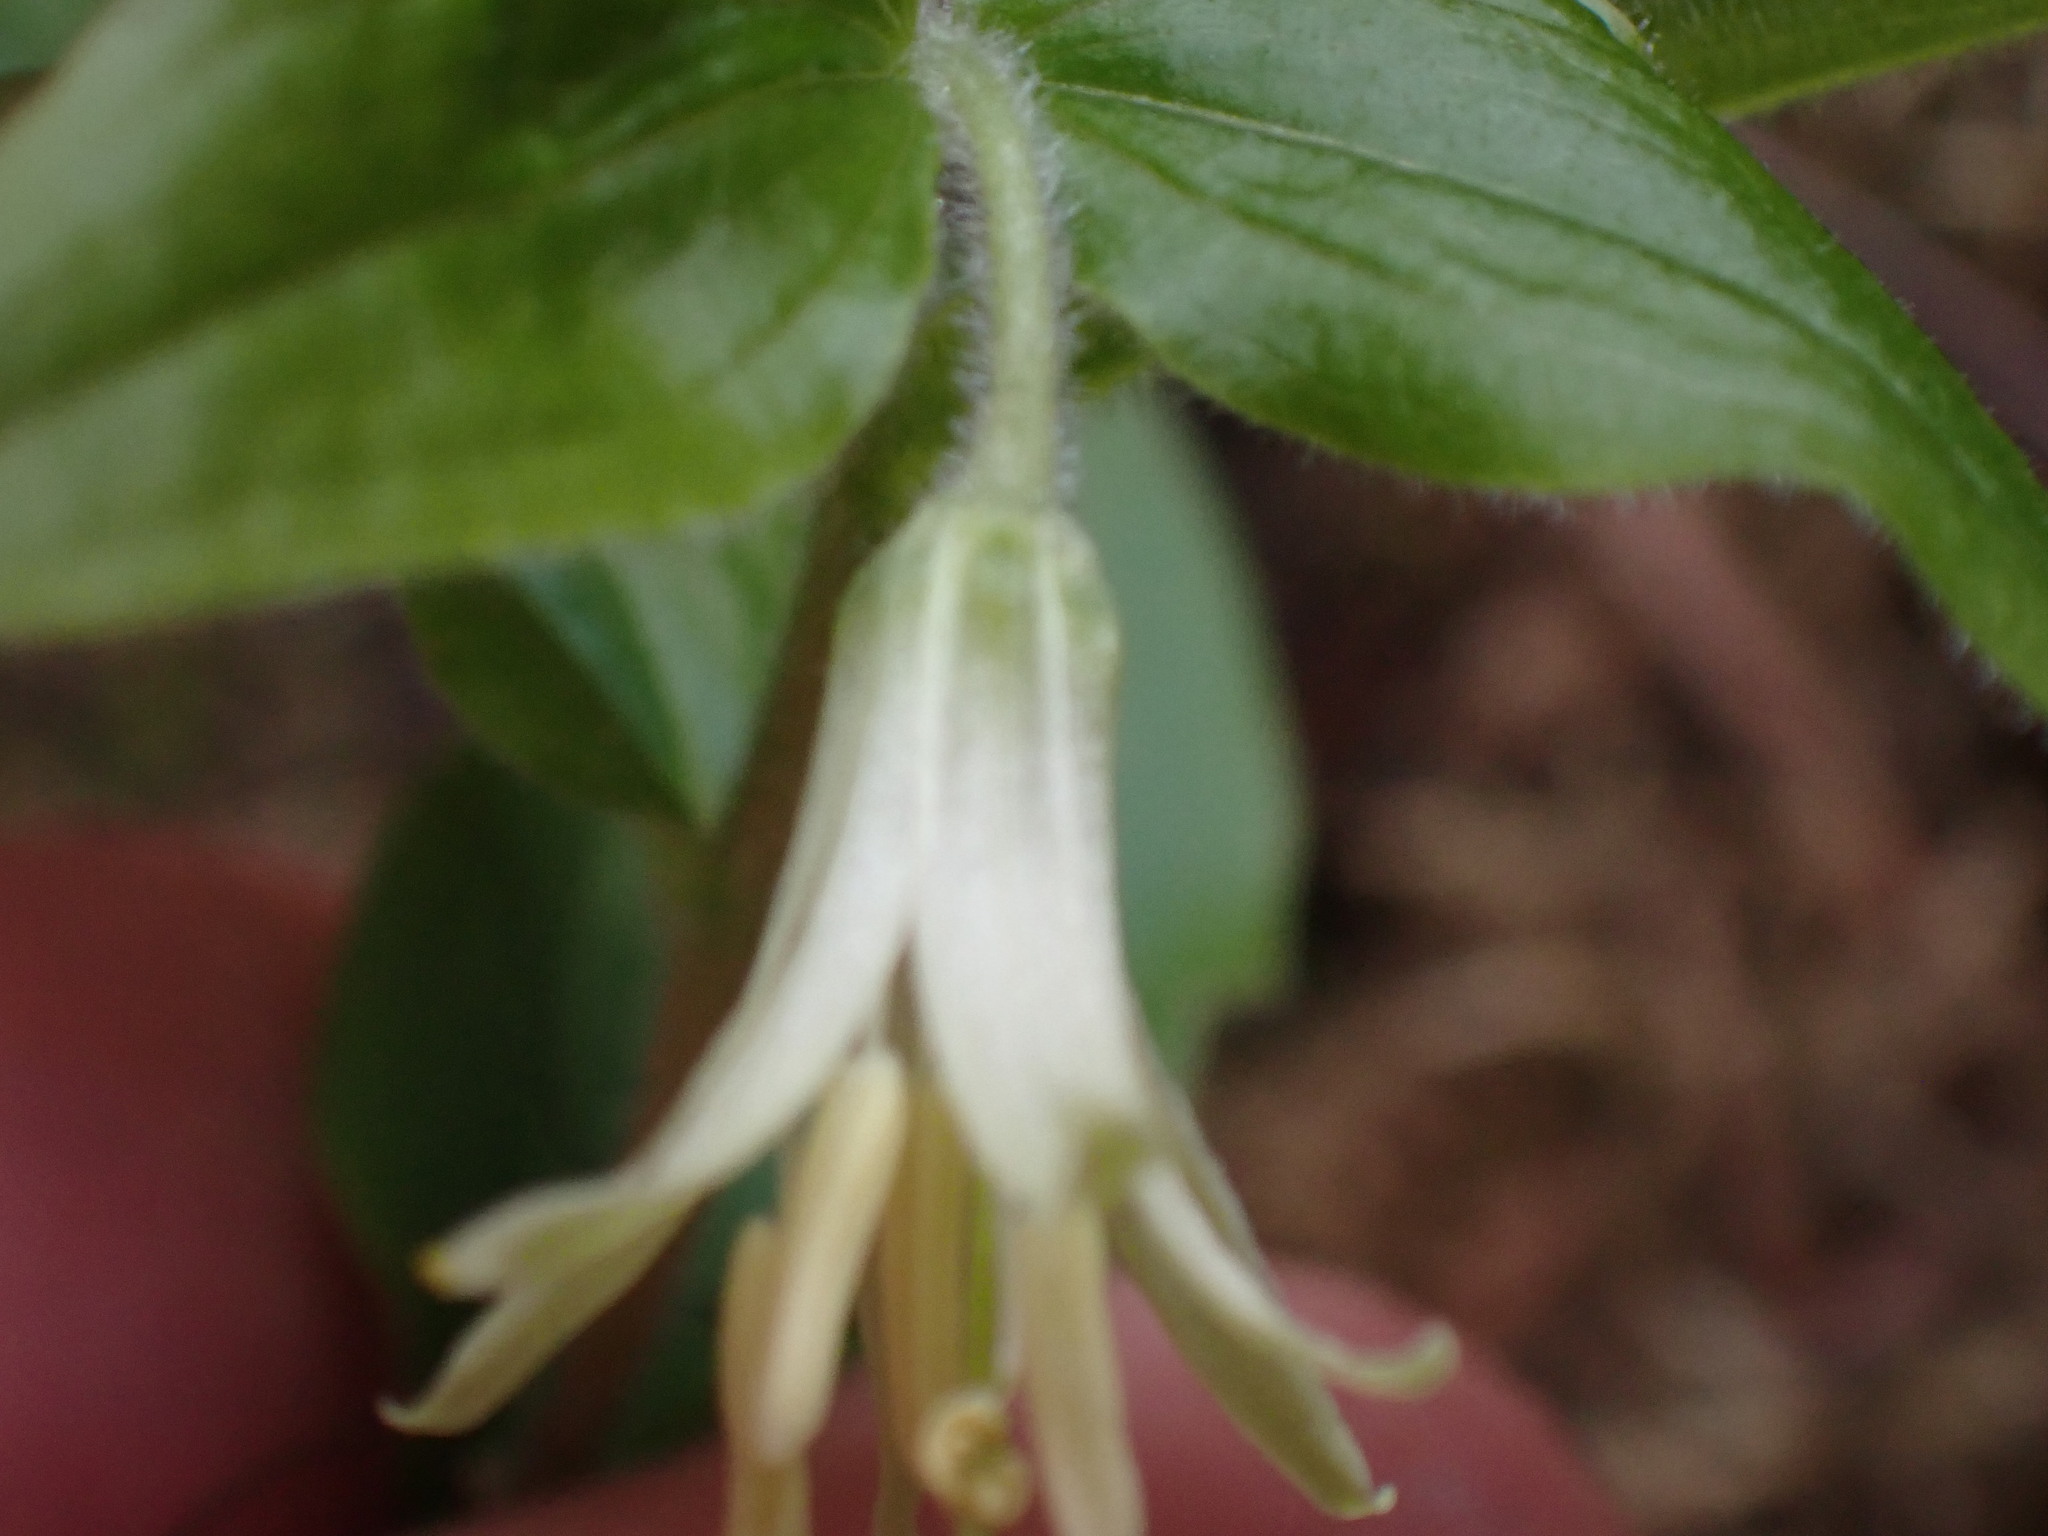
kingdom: Plantae
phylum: Tracheophyta
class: Liliopsida
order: Liliales
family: Liliaceae
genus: Prosartes
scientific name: Prosartes trachycarpa
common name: Rough-fruit fairy-bells
